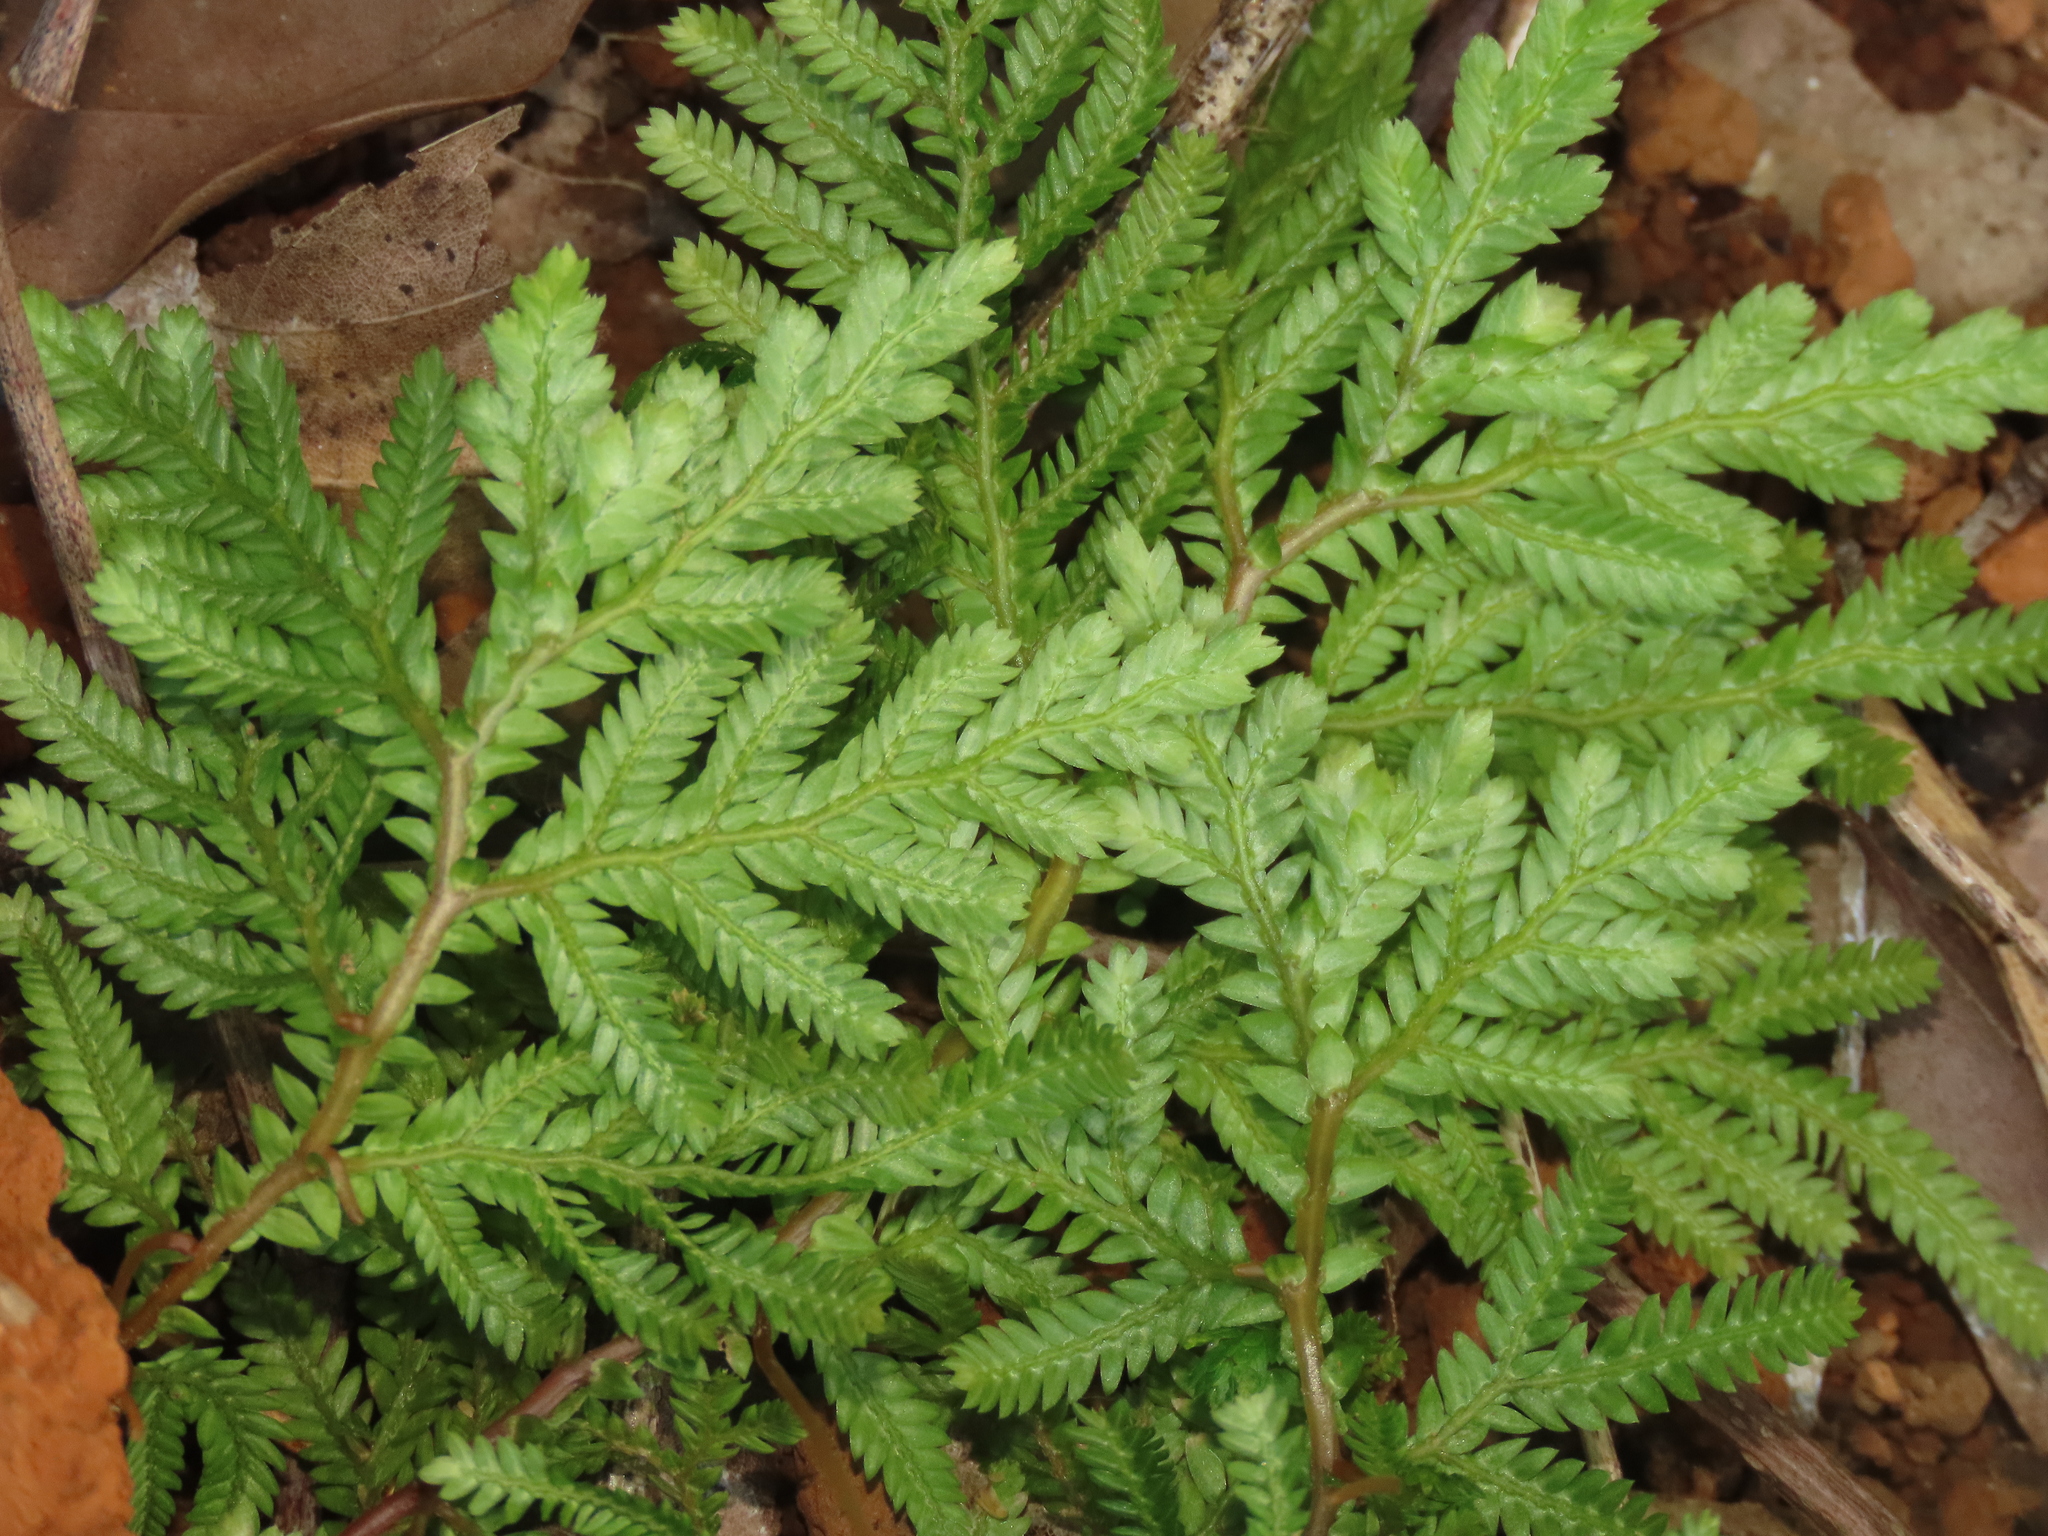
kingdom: Plantae
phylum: Tracheophyta
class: Lycopodiopsida
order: Selaginellales
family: Selaginellaceae
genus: Selaginella
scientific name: Selaginella delicatula
